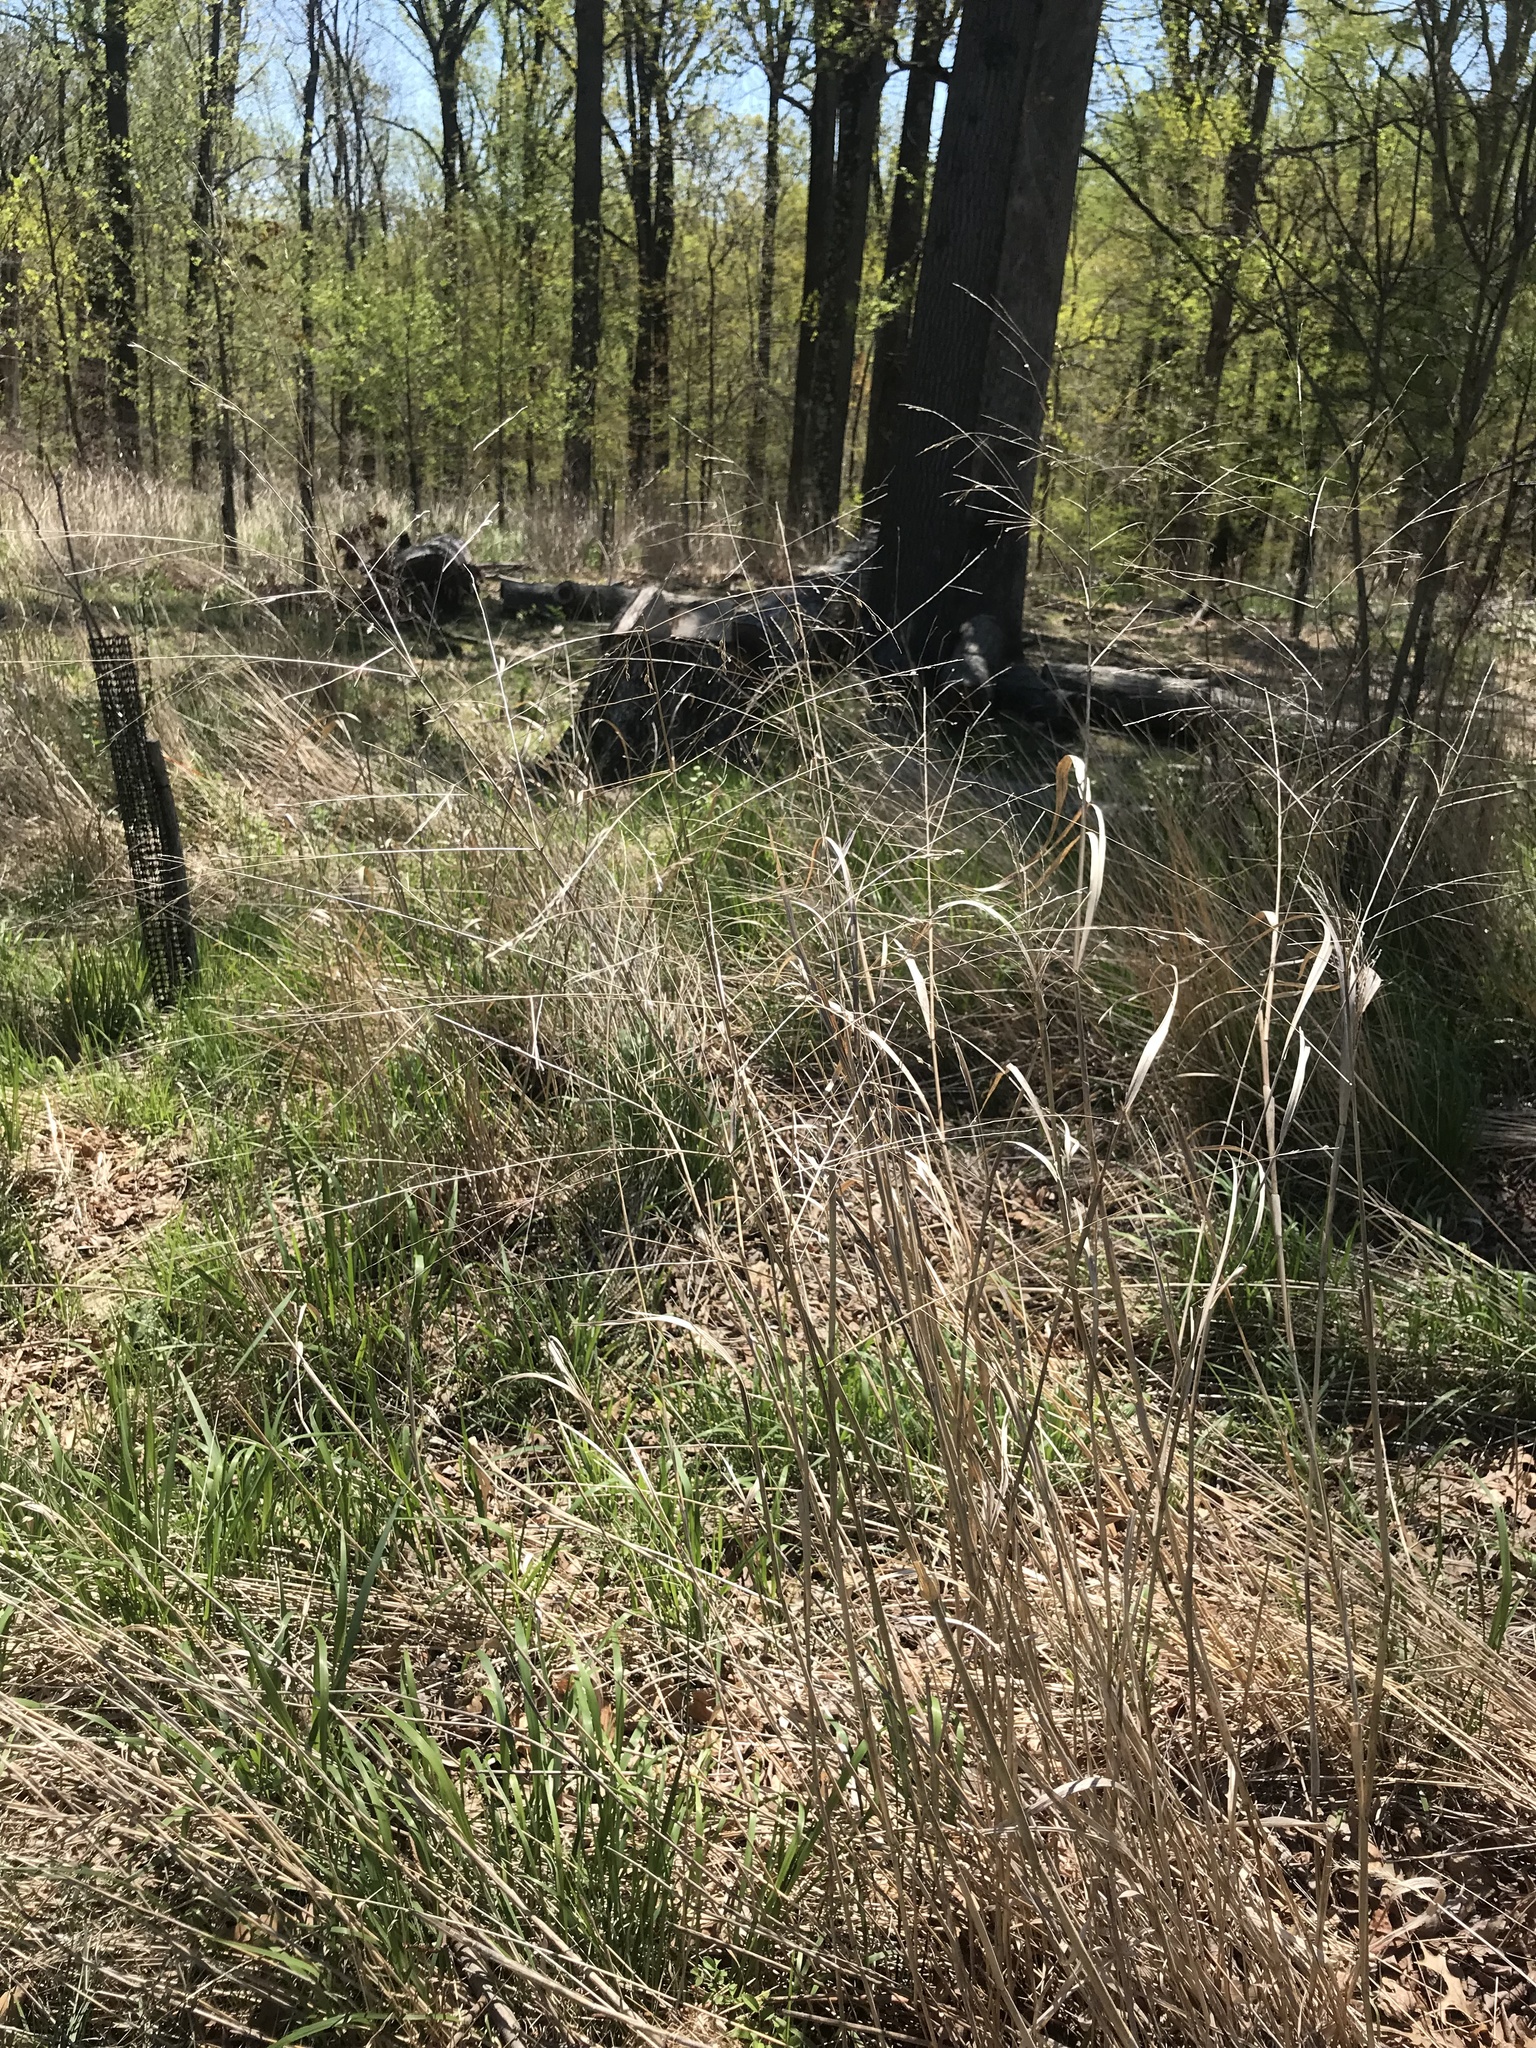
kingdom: Plantae
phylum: Tracheophyta
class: Liliopsida
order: Poales
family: Poaceae
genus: Panicum
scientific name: Panicum virgatum
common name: Switchgrass
